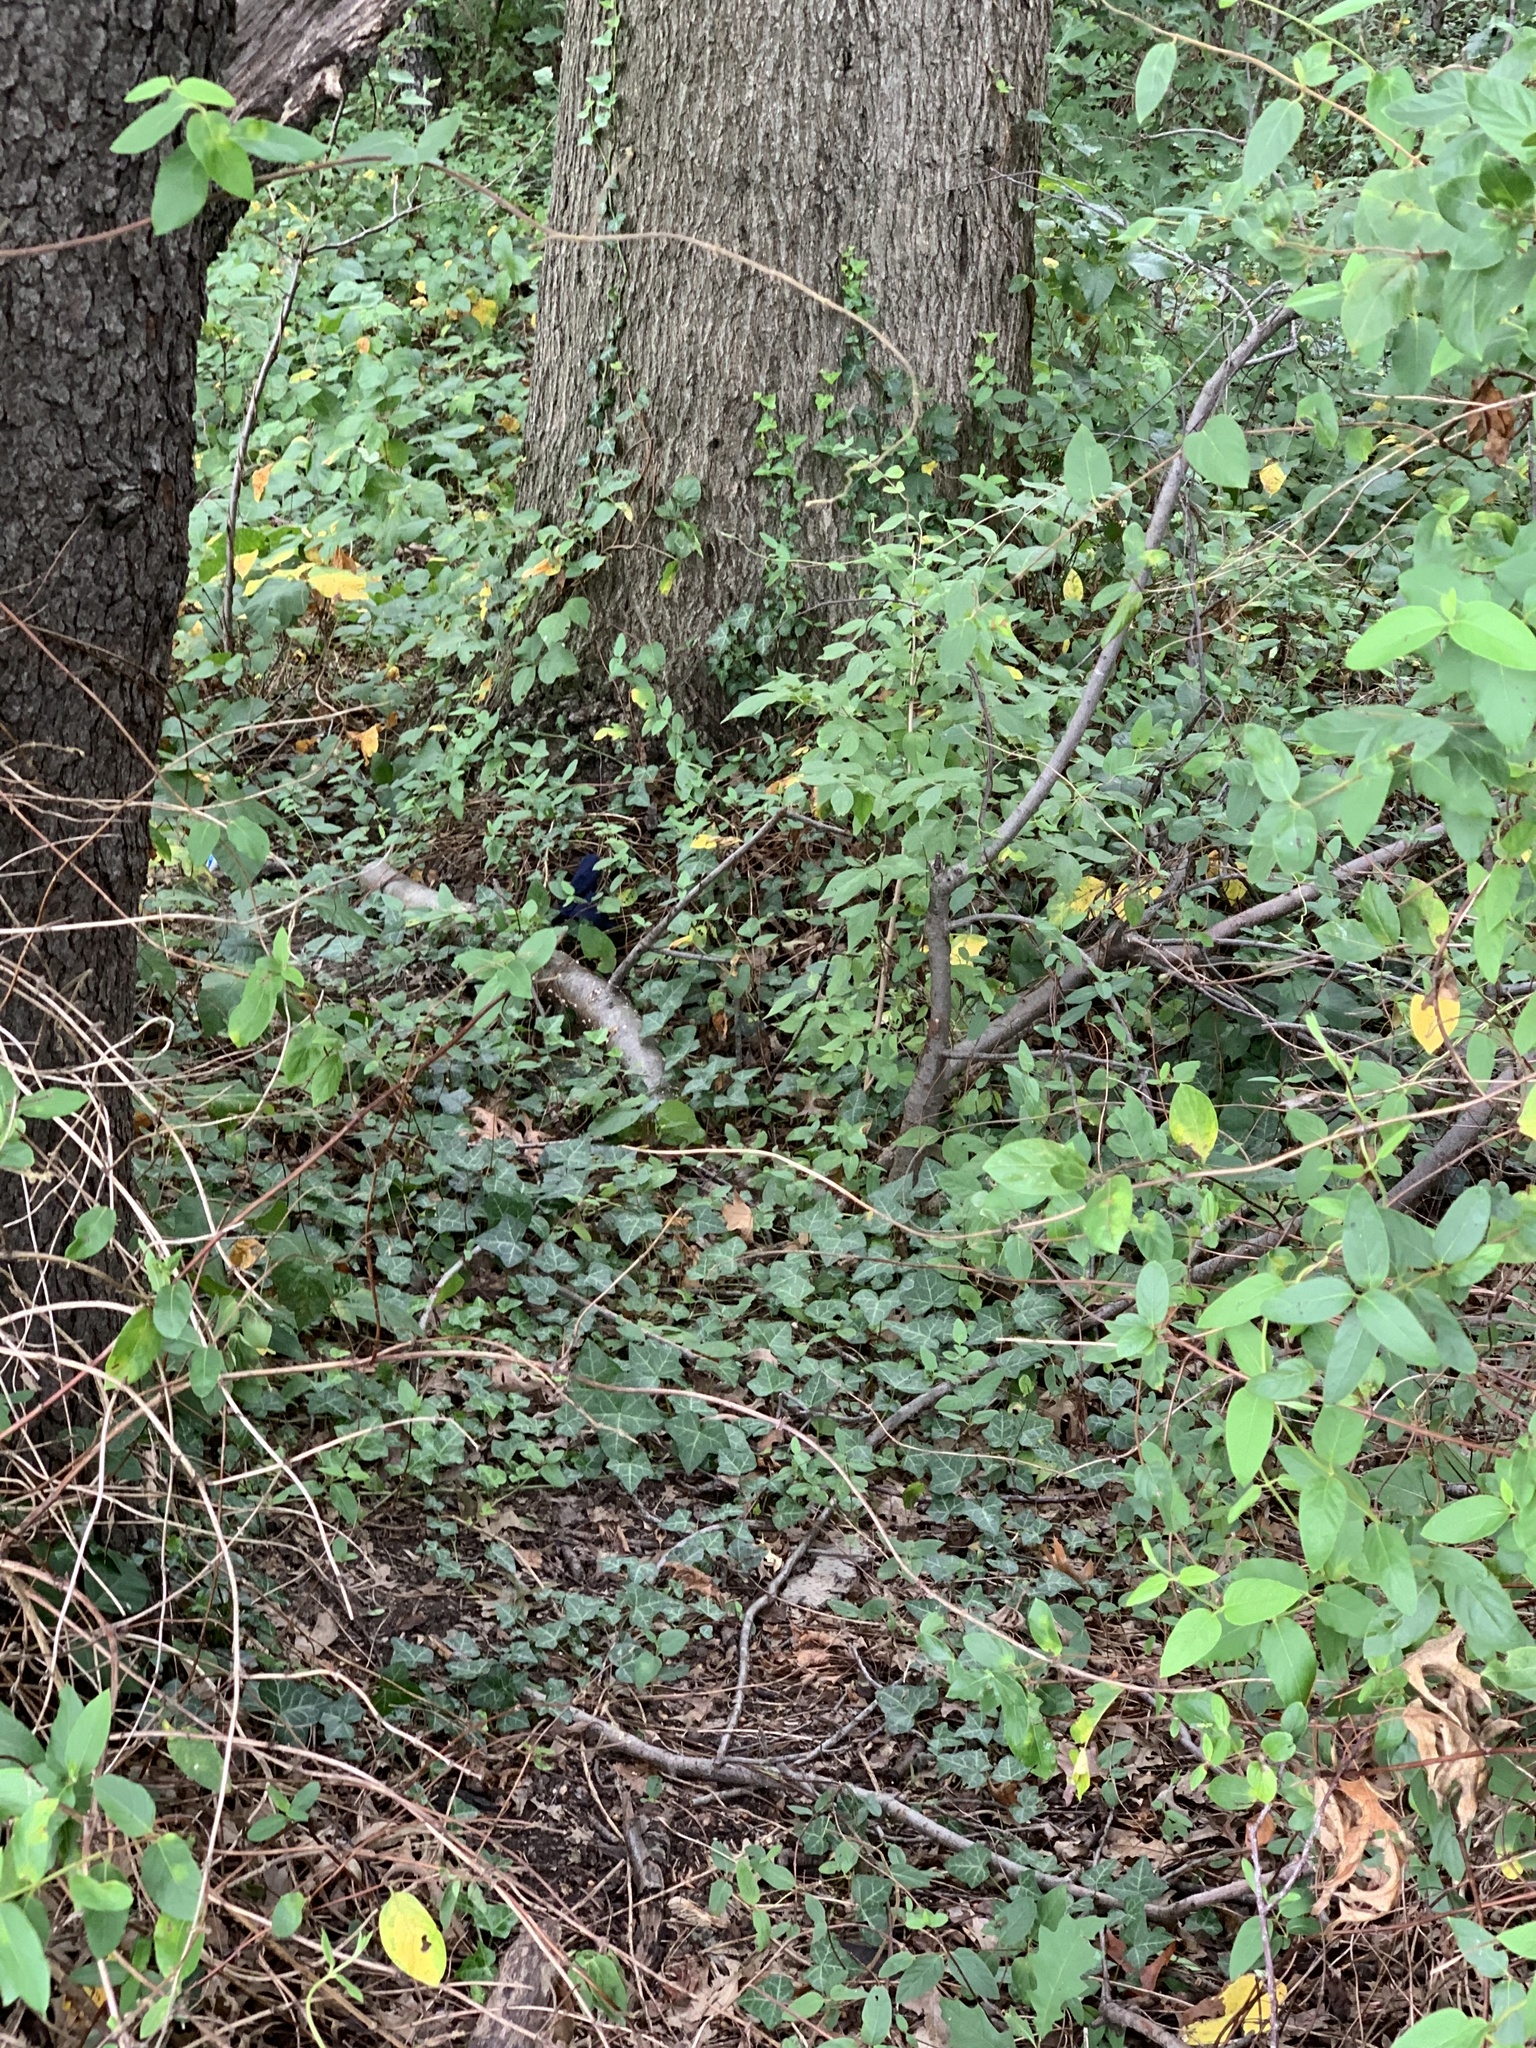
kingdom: Plantae
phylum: Tracheophyta
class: Magnoliopsida
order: Apiales
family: Araliaceae
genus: Hedera
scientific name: Hedera helix
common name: Ivy
